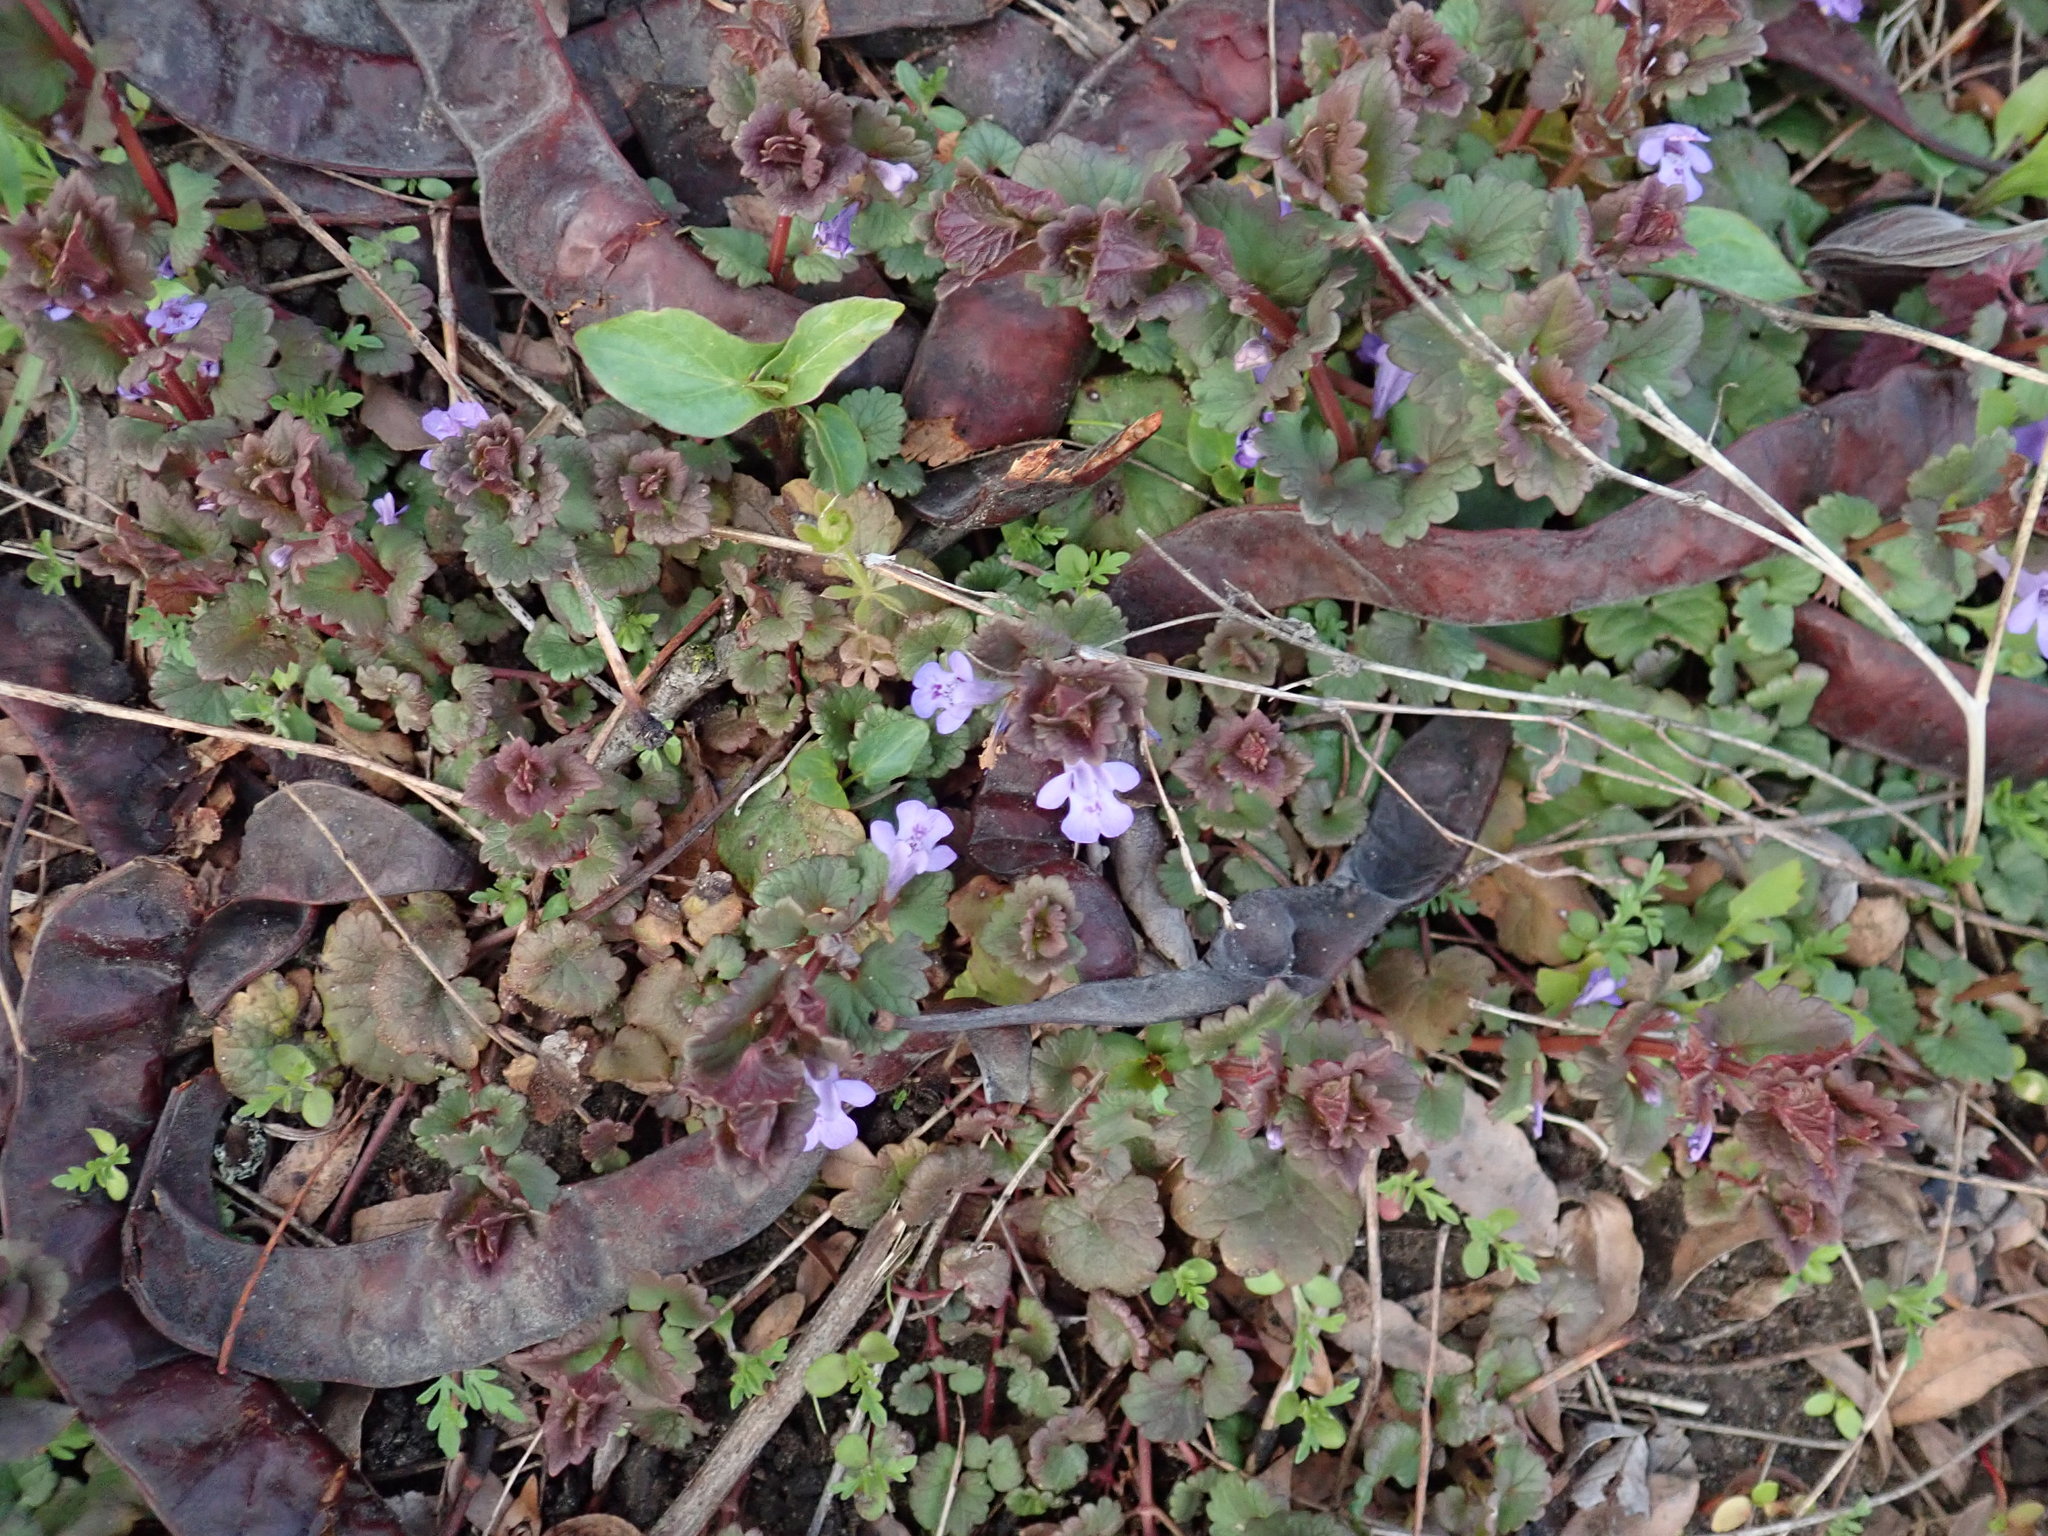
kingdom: Plantae
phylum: Tracheophyta
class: Magnoliopsida
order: Lamiales
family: Lamiaceae
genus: Glechoma
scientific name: Glechoma hederacea
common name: Ground ivy
